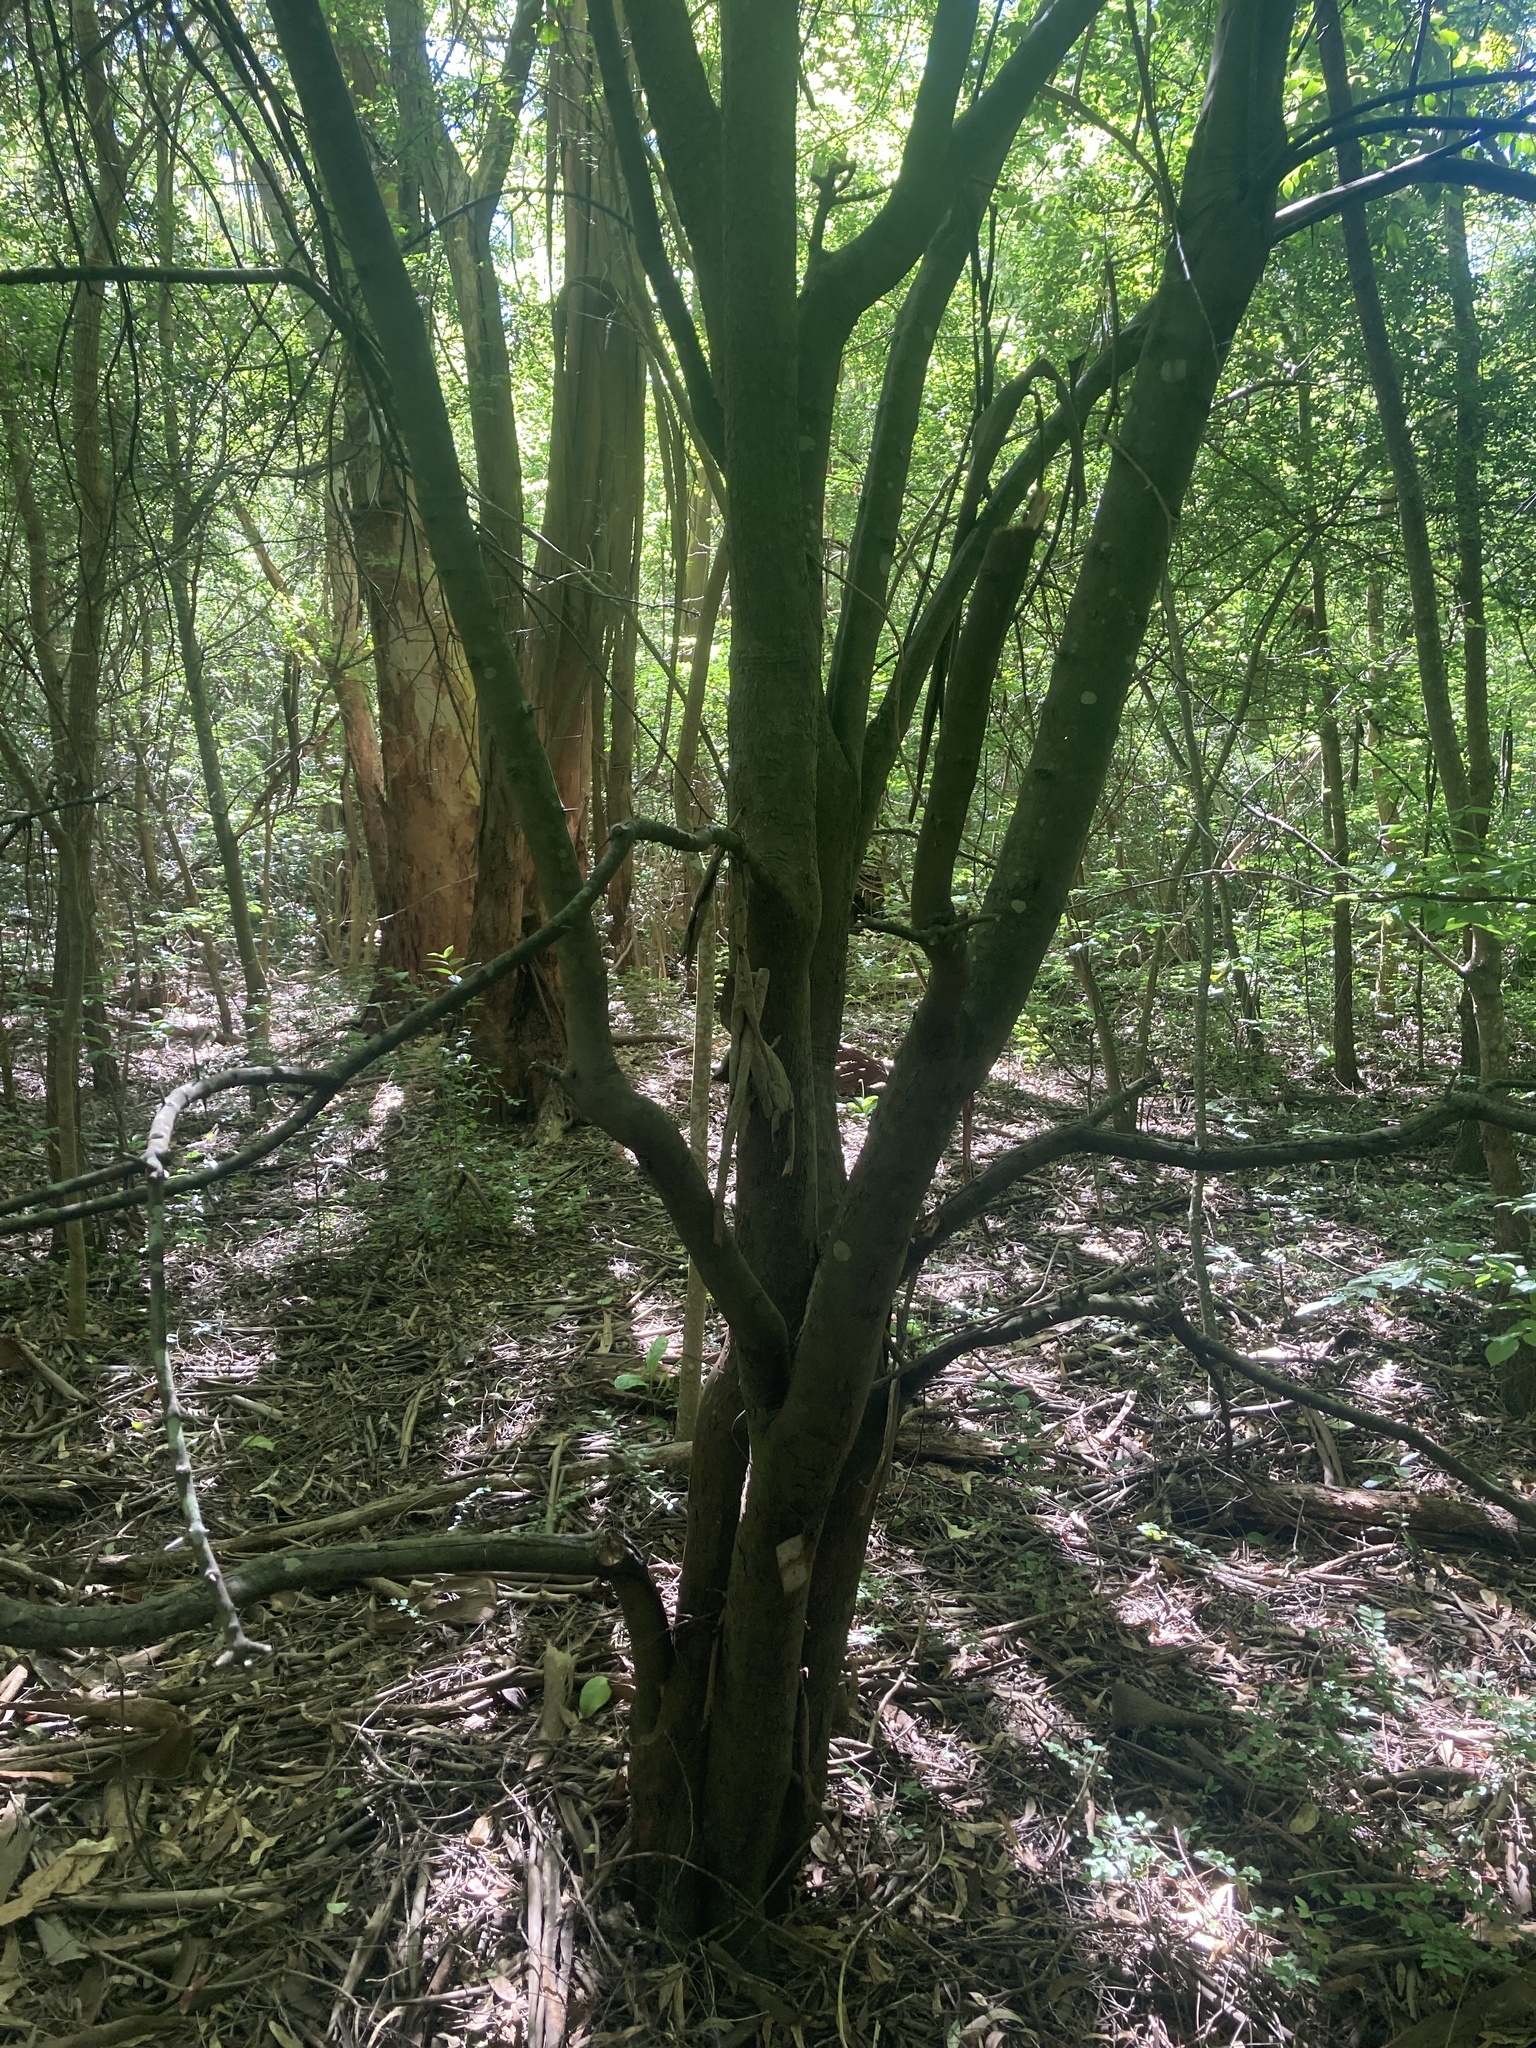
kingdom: Plantae
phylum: Tracheophyta
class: Magnoliopsida
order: Rosales
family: Rhamnaceae
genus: Scutia
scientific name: Scutia buxifolia
